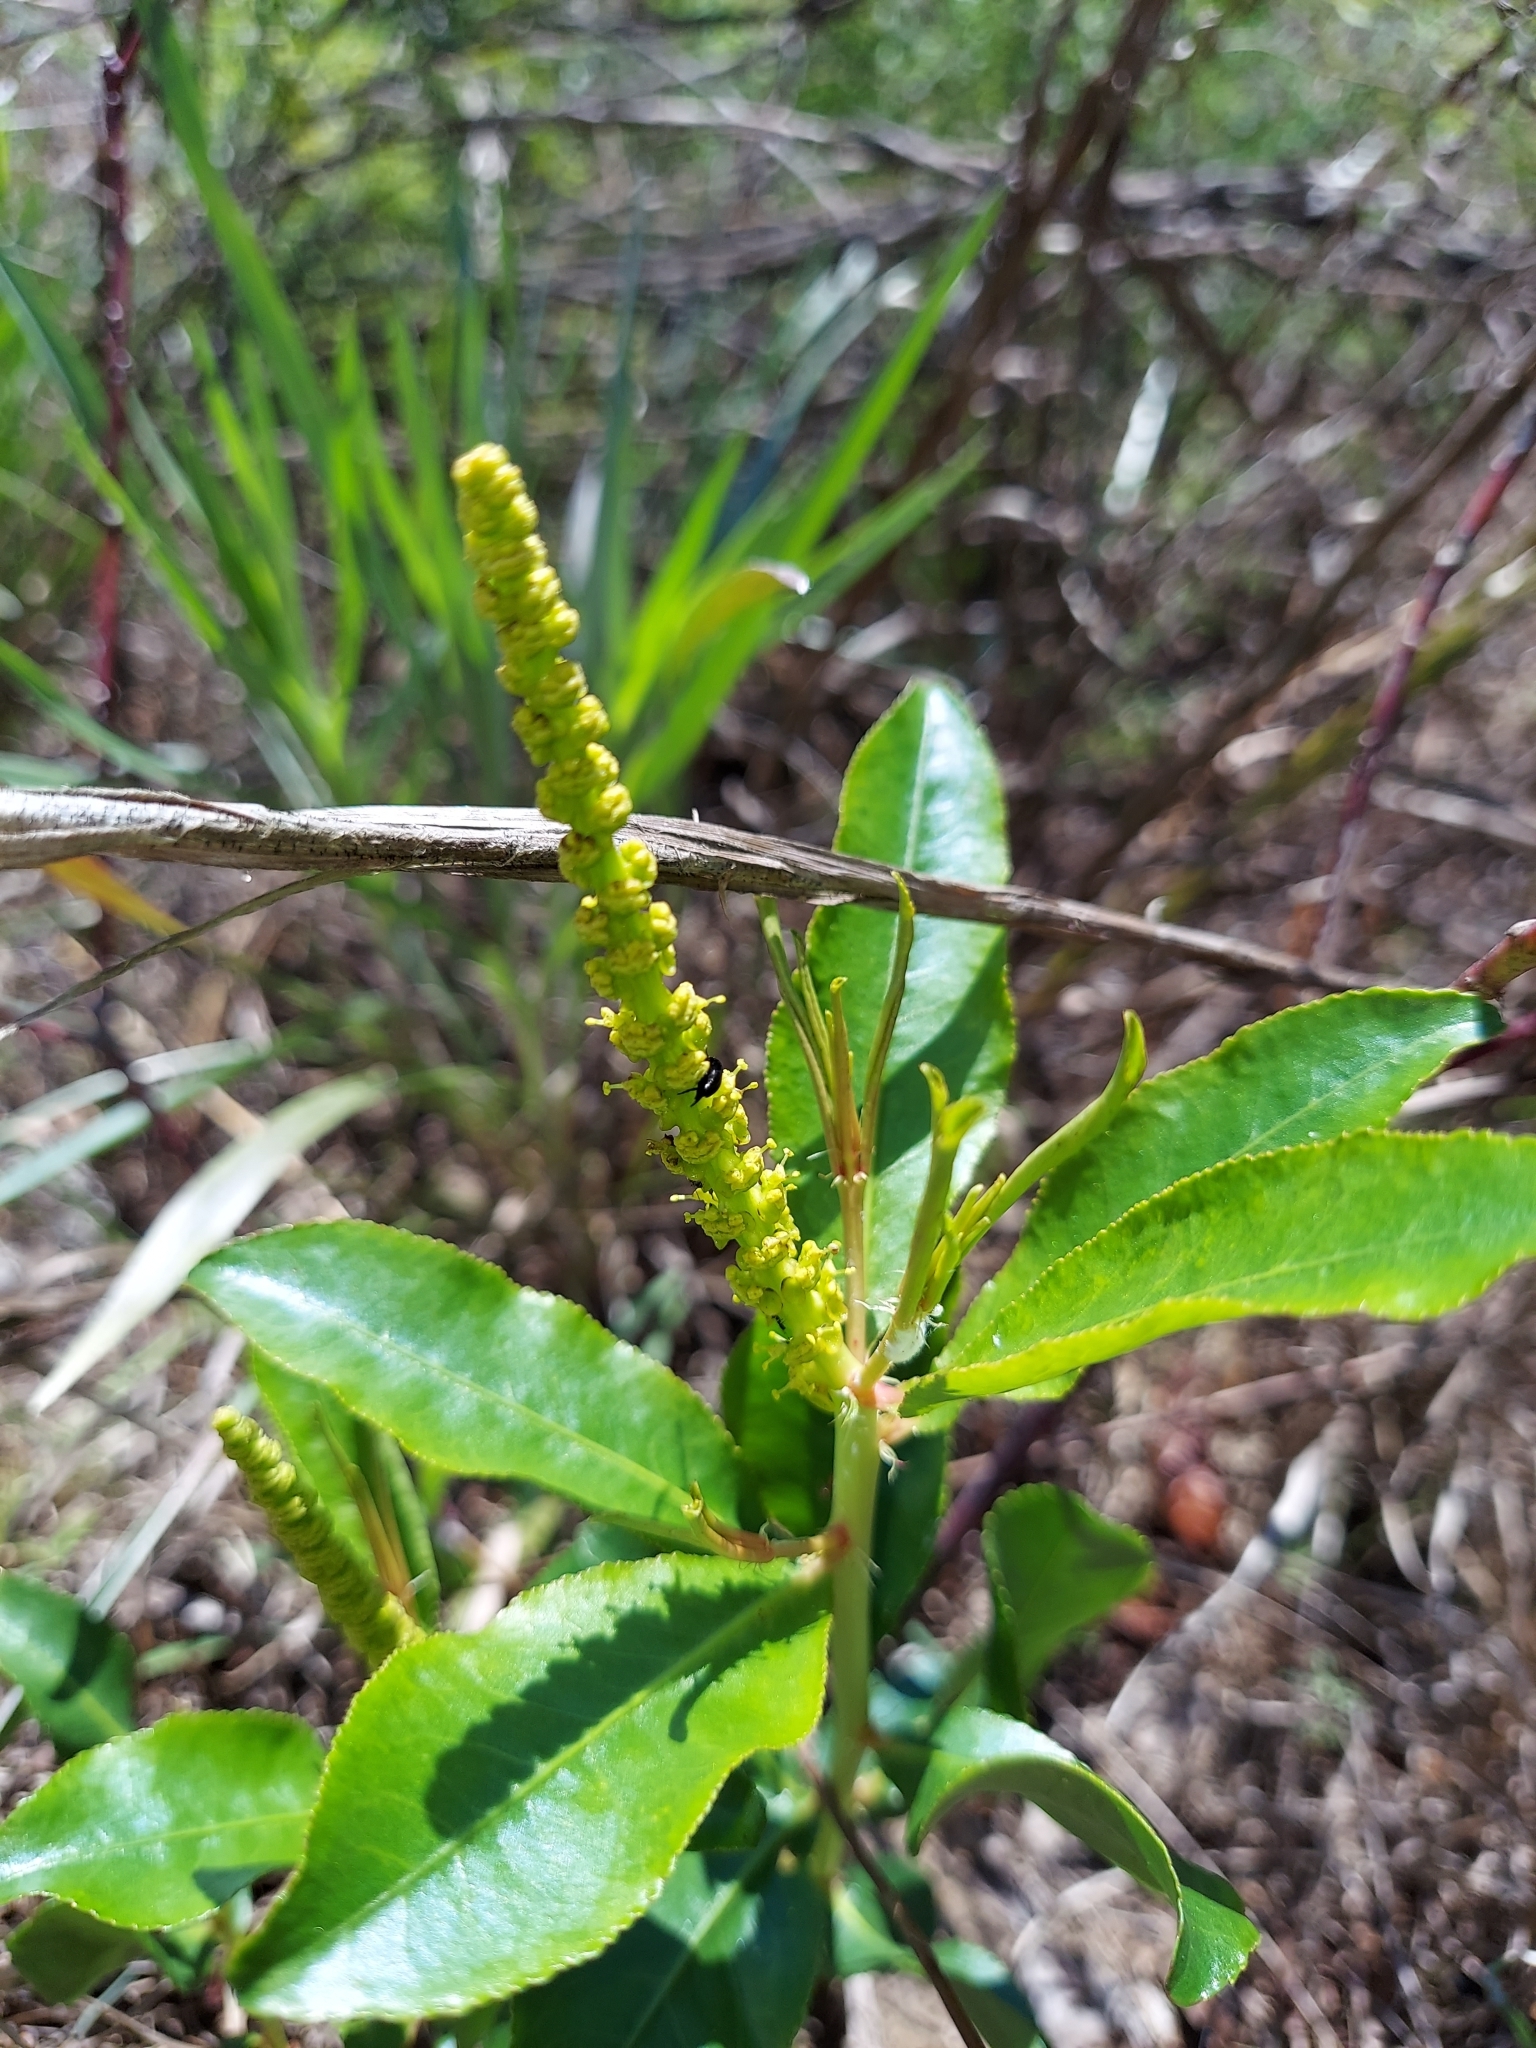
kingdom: Plantae
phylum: Tracheophyta
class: Magnoliopsida
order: Malpighiales
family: Euphorbiaceae
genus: Stillingia
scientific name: Stillingia sylvatica
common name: Queen's-delight
